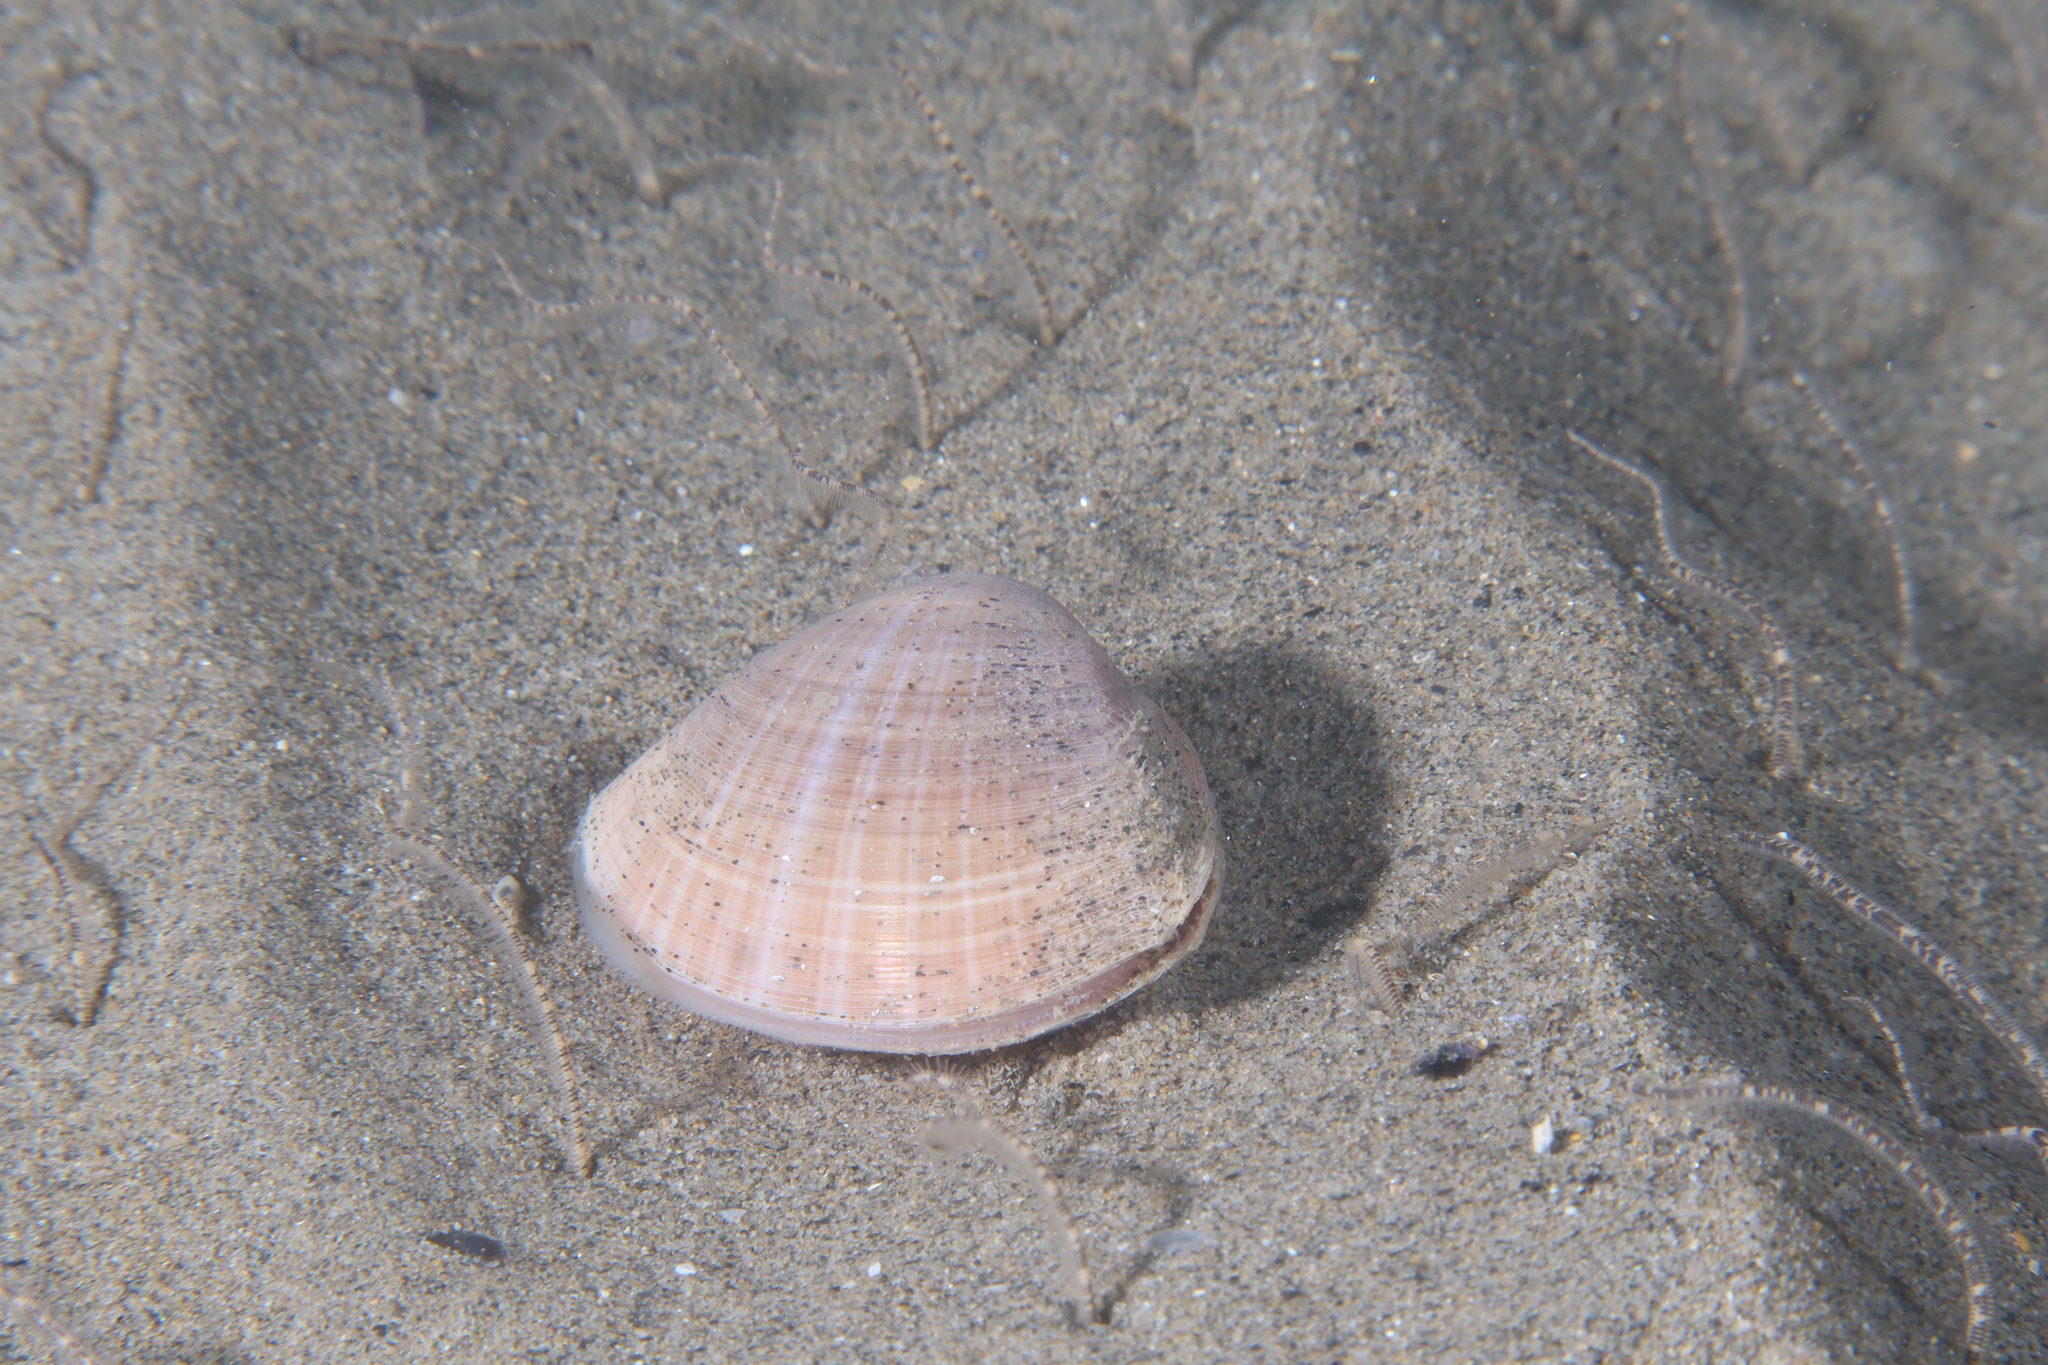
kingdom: Animalia
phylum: Mollusca
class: Bivalvia
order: Venerida
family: Mactridae
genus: Mactra
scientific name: Mactra stultorum
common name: Rayed trough shell
